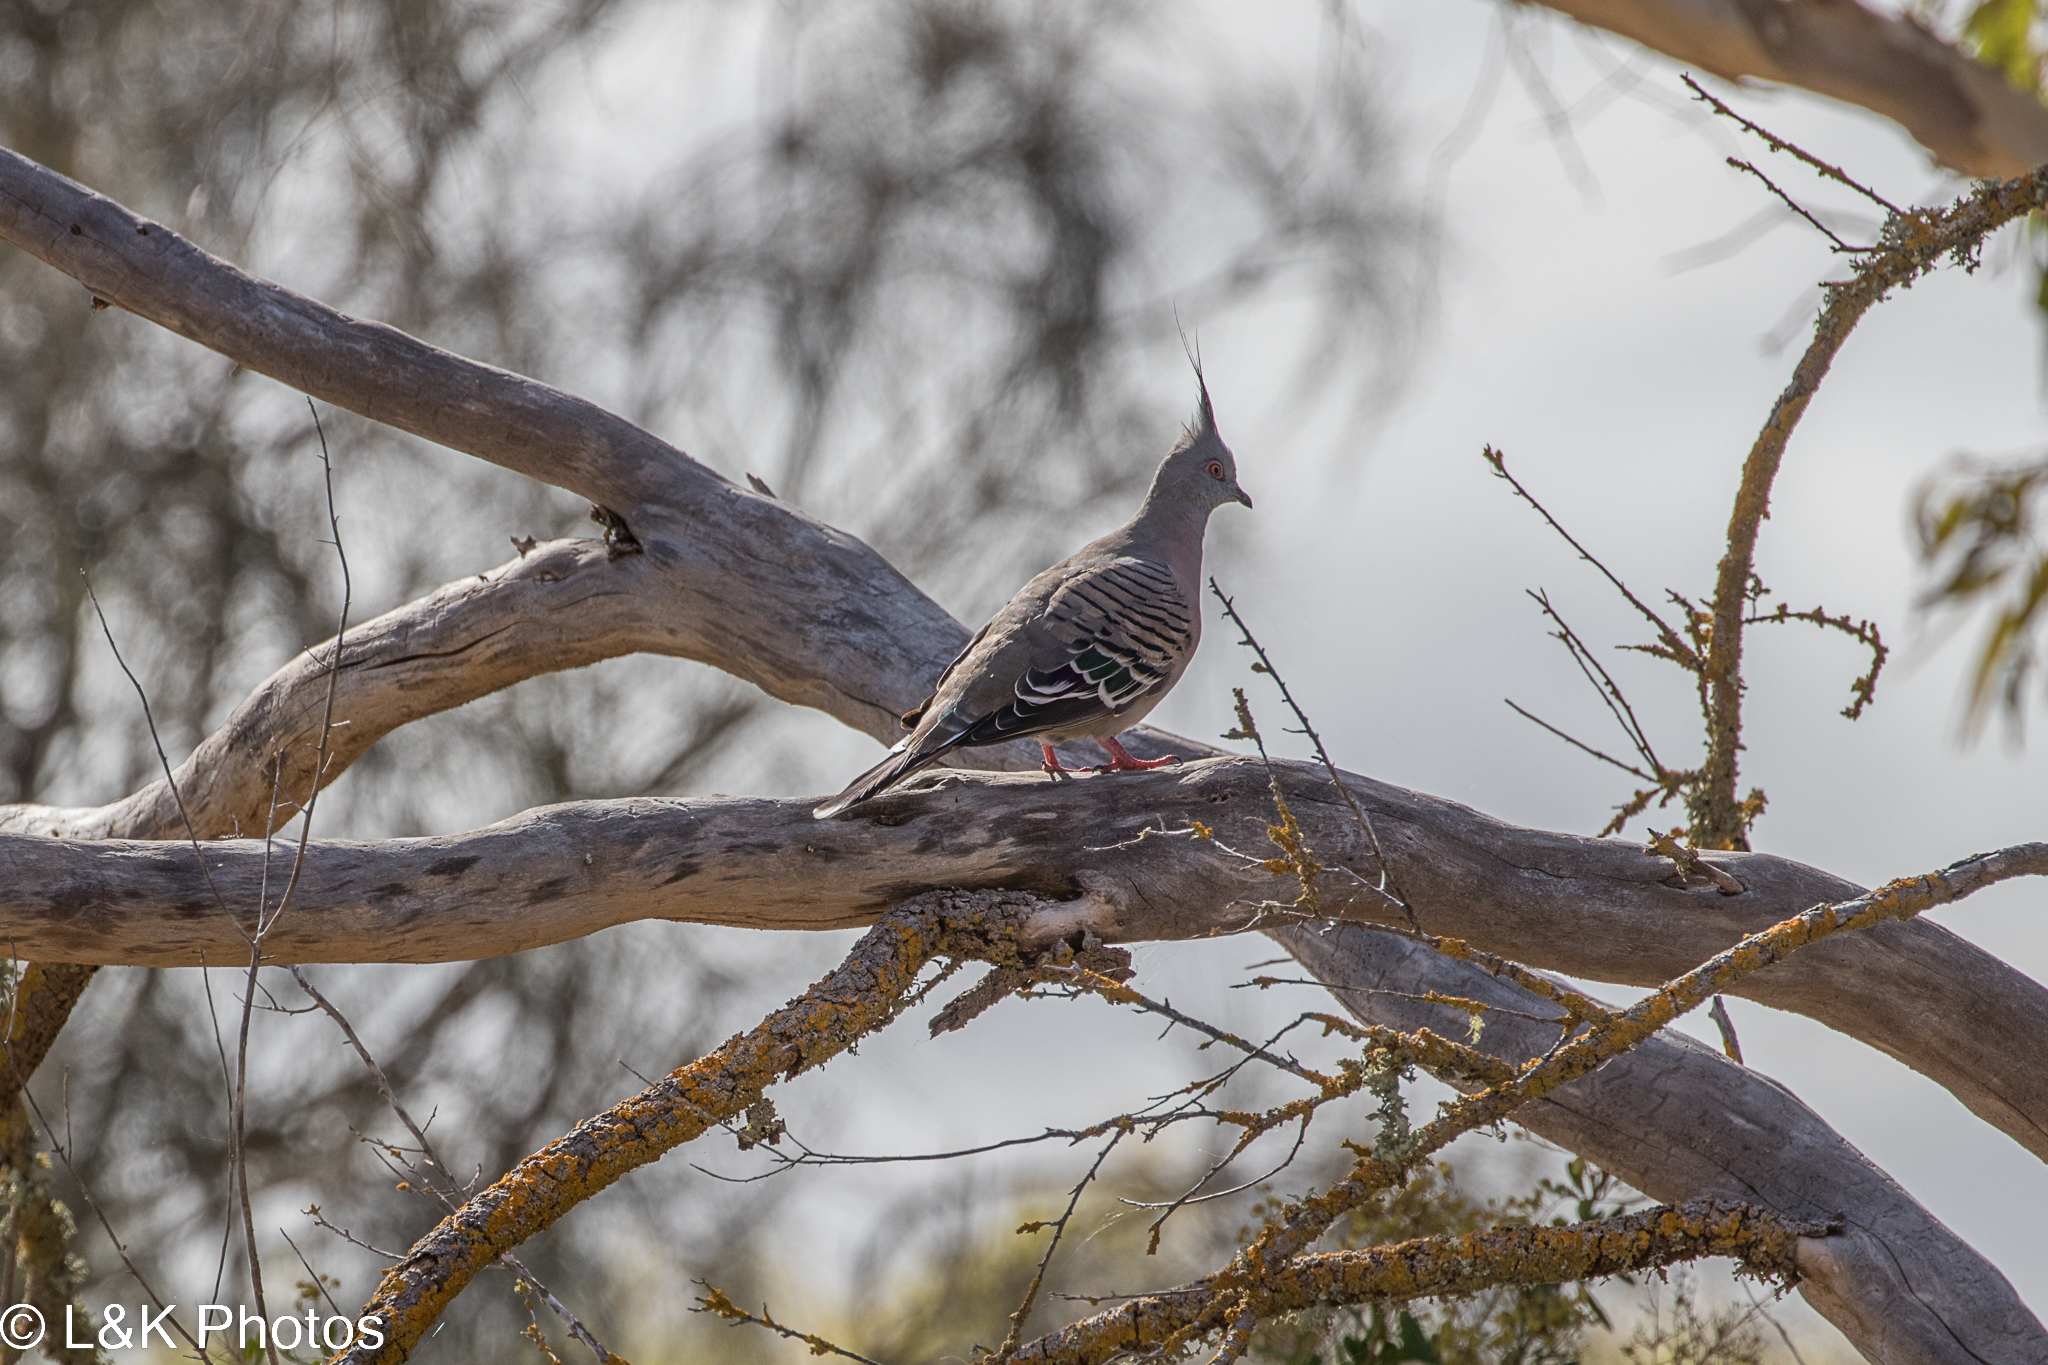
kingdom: Animalia
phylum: Chordata
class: Aves
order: Columbiformes
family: Columbidae
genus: Ocyphaps
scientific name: Ocyphaps lophotes
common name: Crested pigeon
